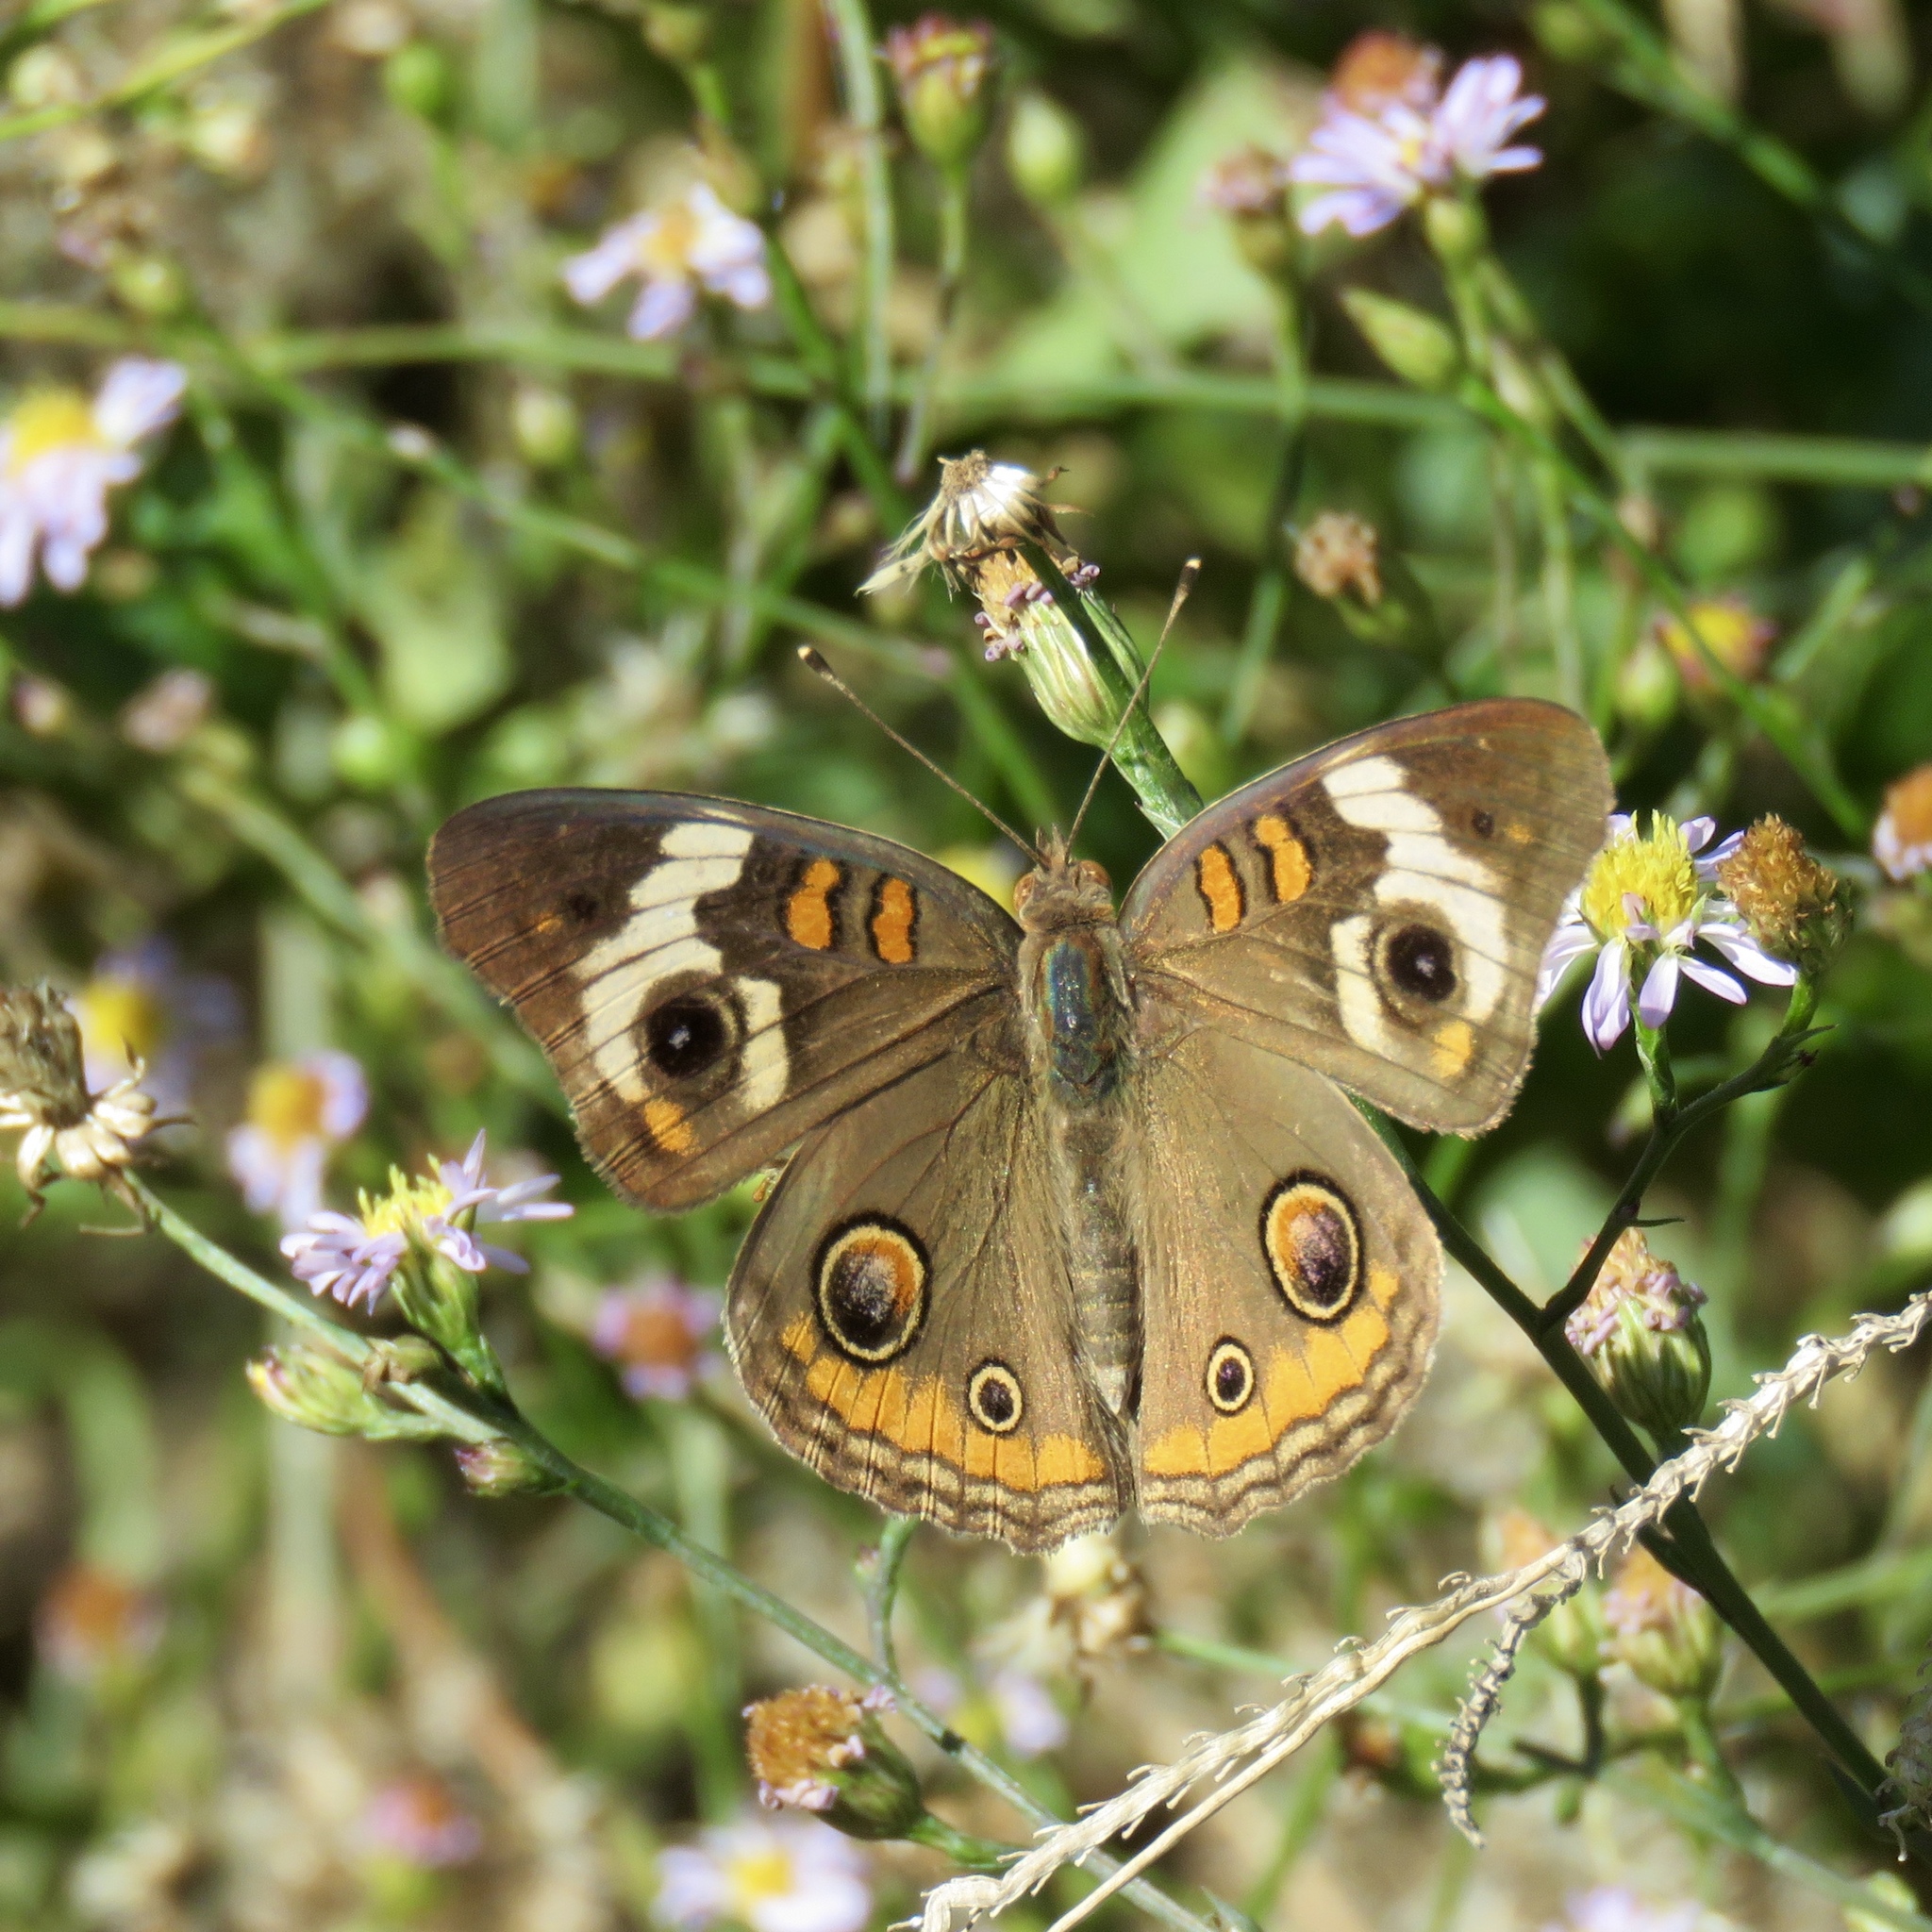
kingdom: Animalia
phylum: Arthropoda
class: Insecta
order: Lepidoptera
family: Nymphalidae
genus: Junonia
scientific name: Junonia coenia
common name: Common buckeye
